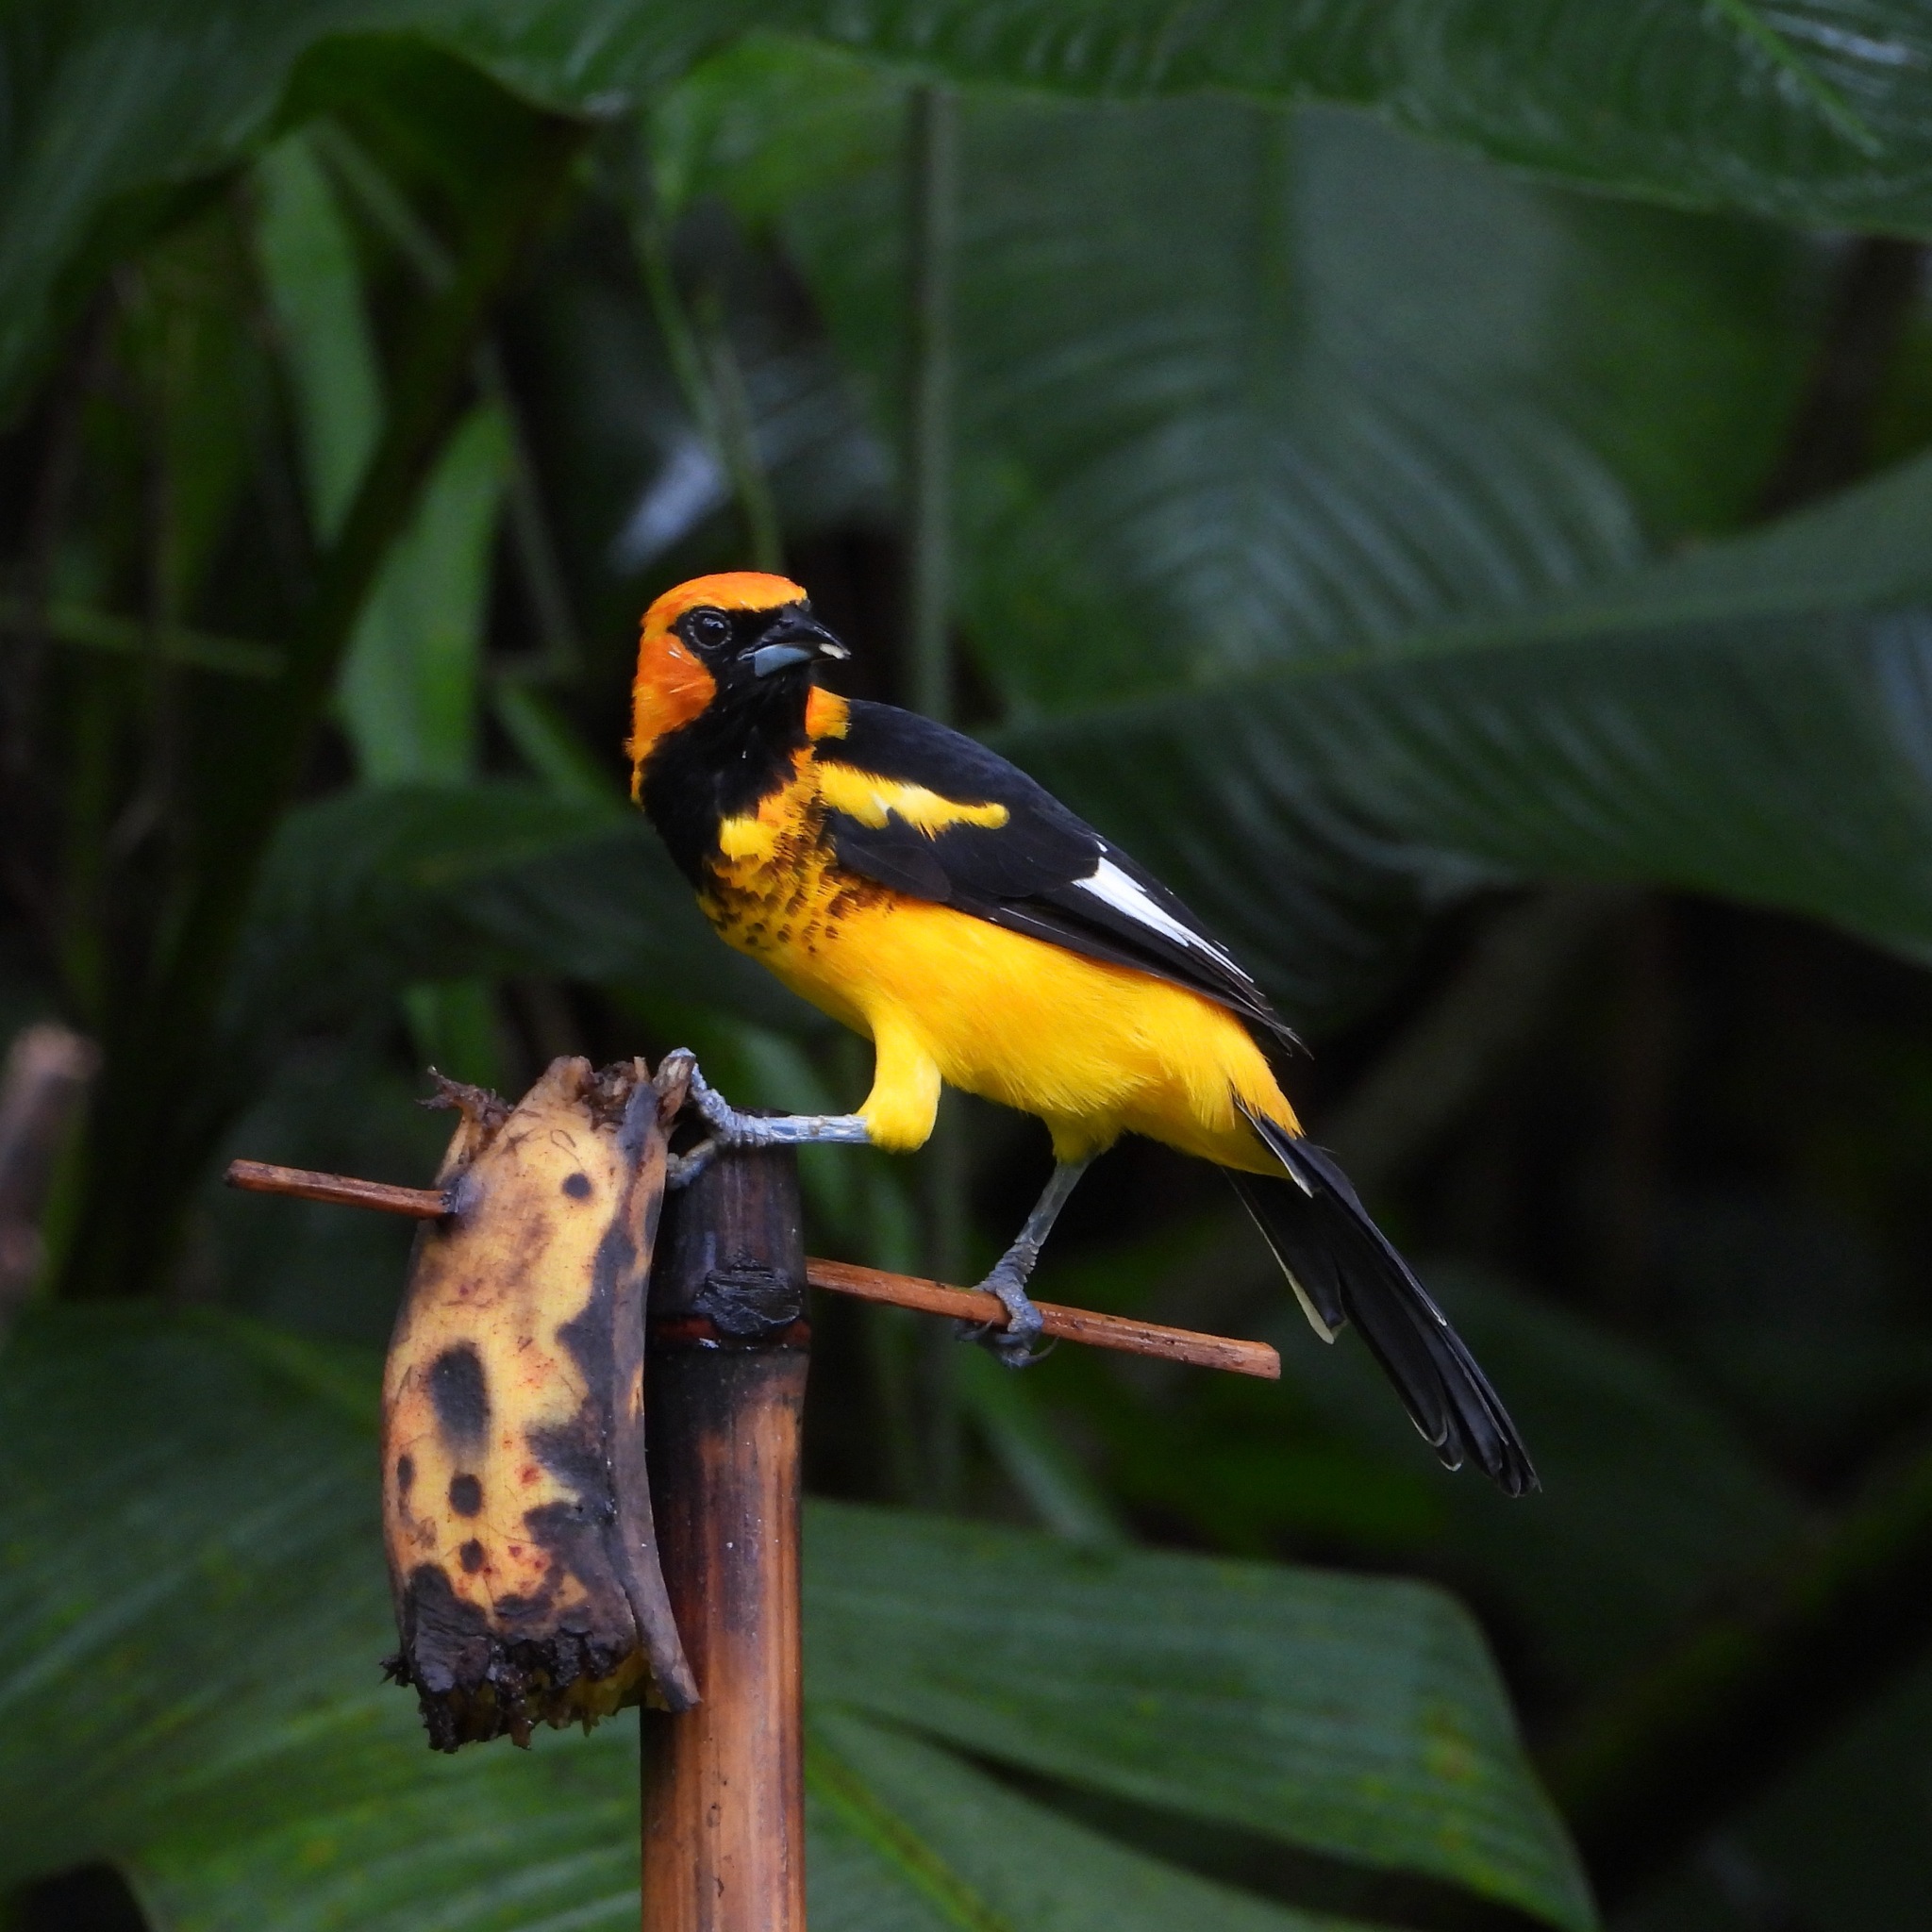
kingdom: Animalia
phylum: Chordata
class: Aves
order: Passeriformes
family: Icteridae
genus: Icterus
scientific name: Icterus pectoralis
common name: Spot-breasted oriole
